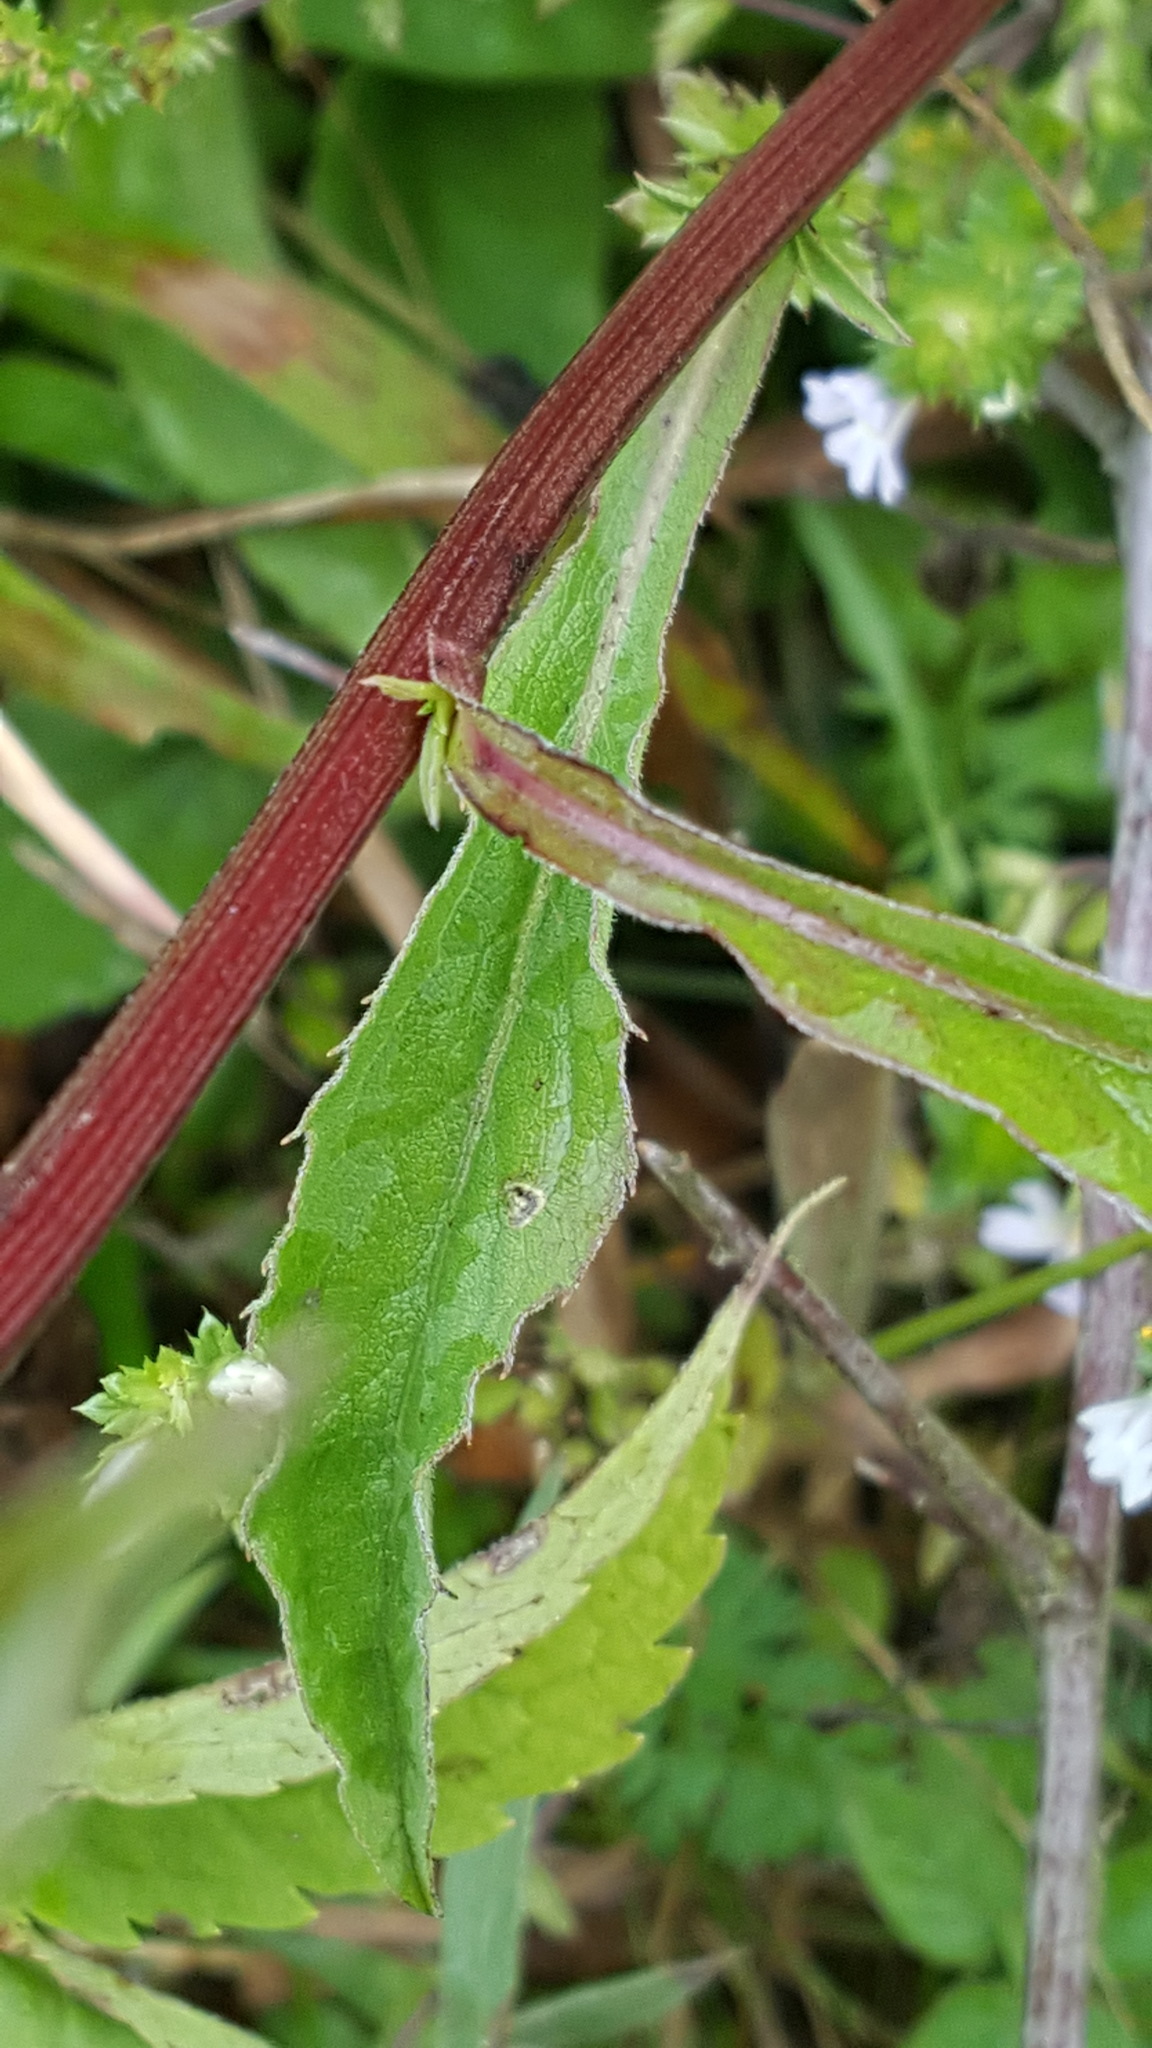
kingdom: Plantae
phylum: Tracheophyta
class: Magnoliopsida
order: Asterales
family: Asteraceae
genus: Solidago
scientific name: Solidago virgaurea
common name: Goldenrod
